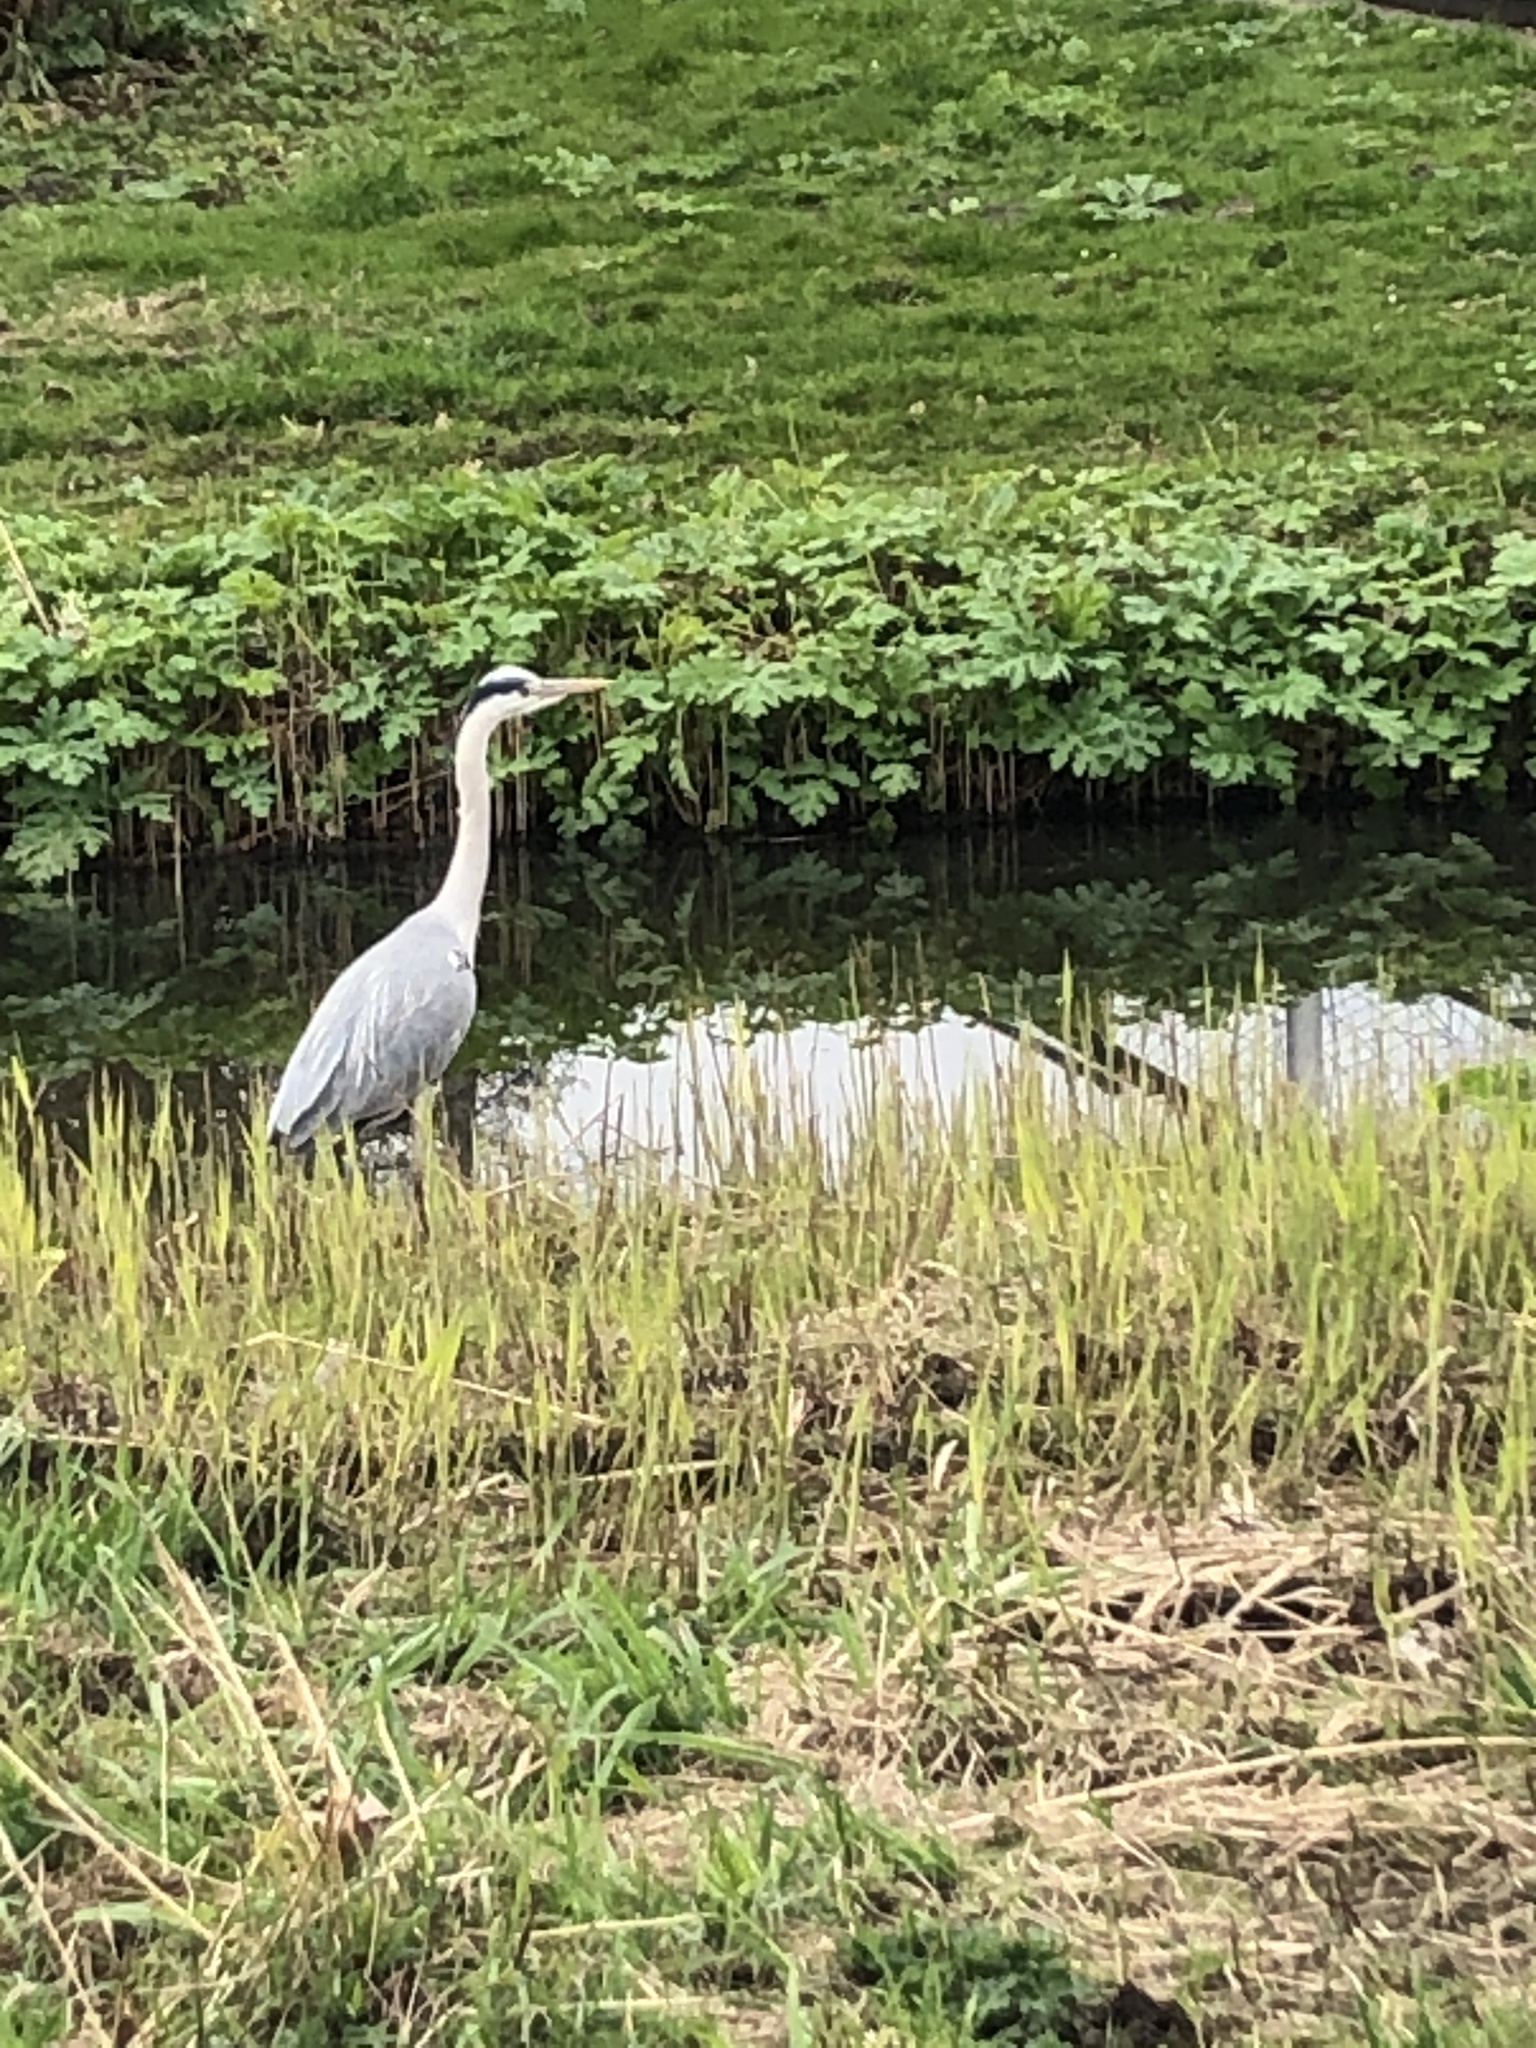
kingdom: Animalia
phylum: Chordata
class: Aves
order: Pelecaniformes
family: Ardeidae
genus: Ardea
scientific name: Ardea cinerea
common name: Grey heron
